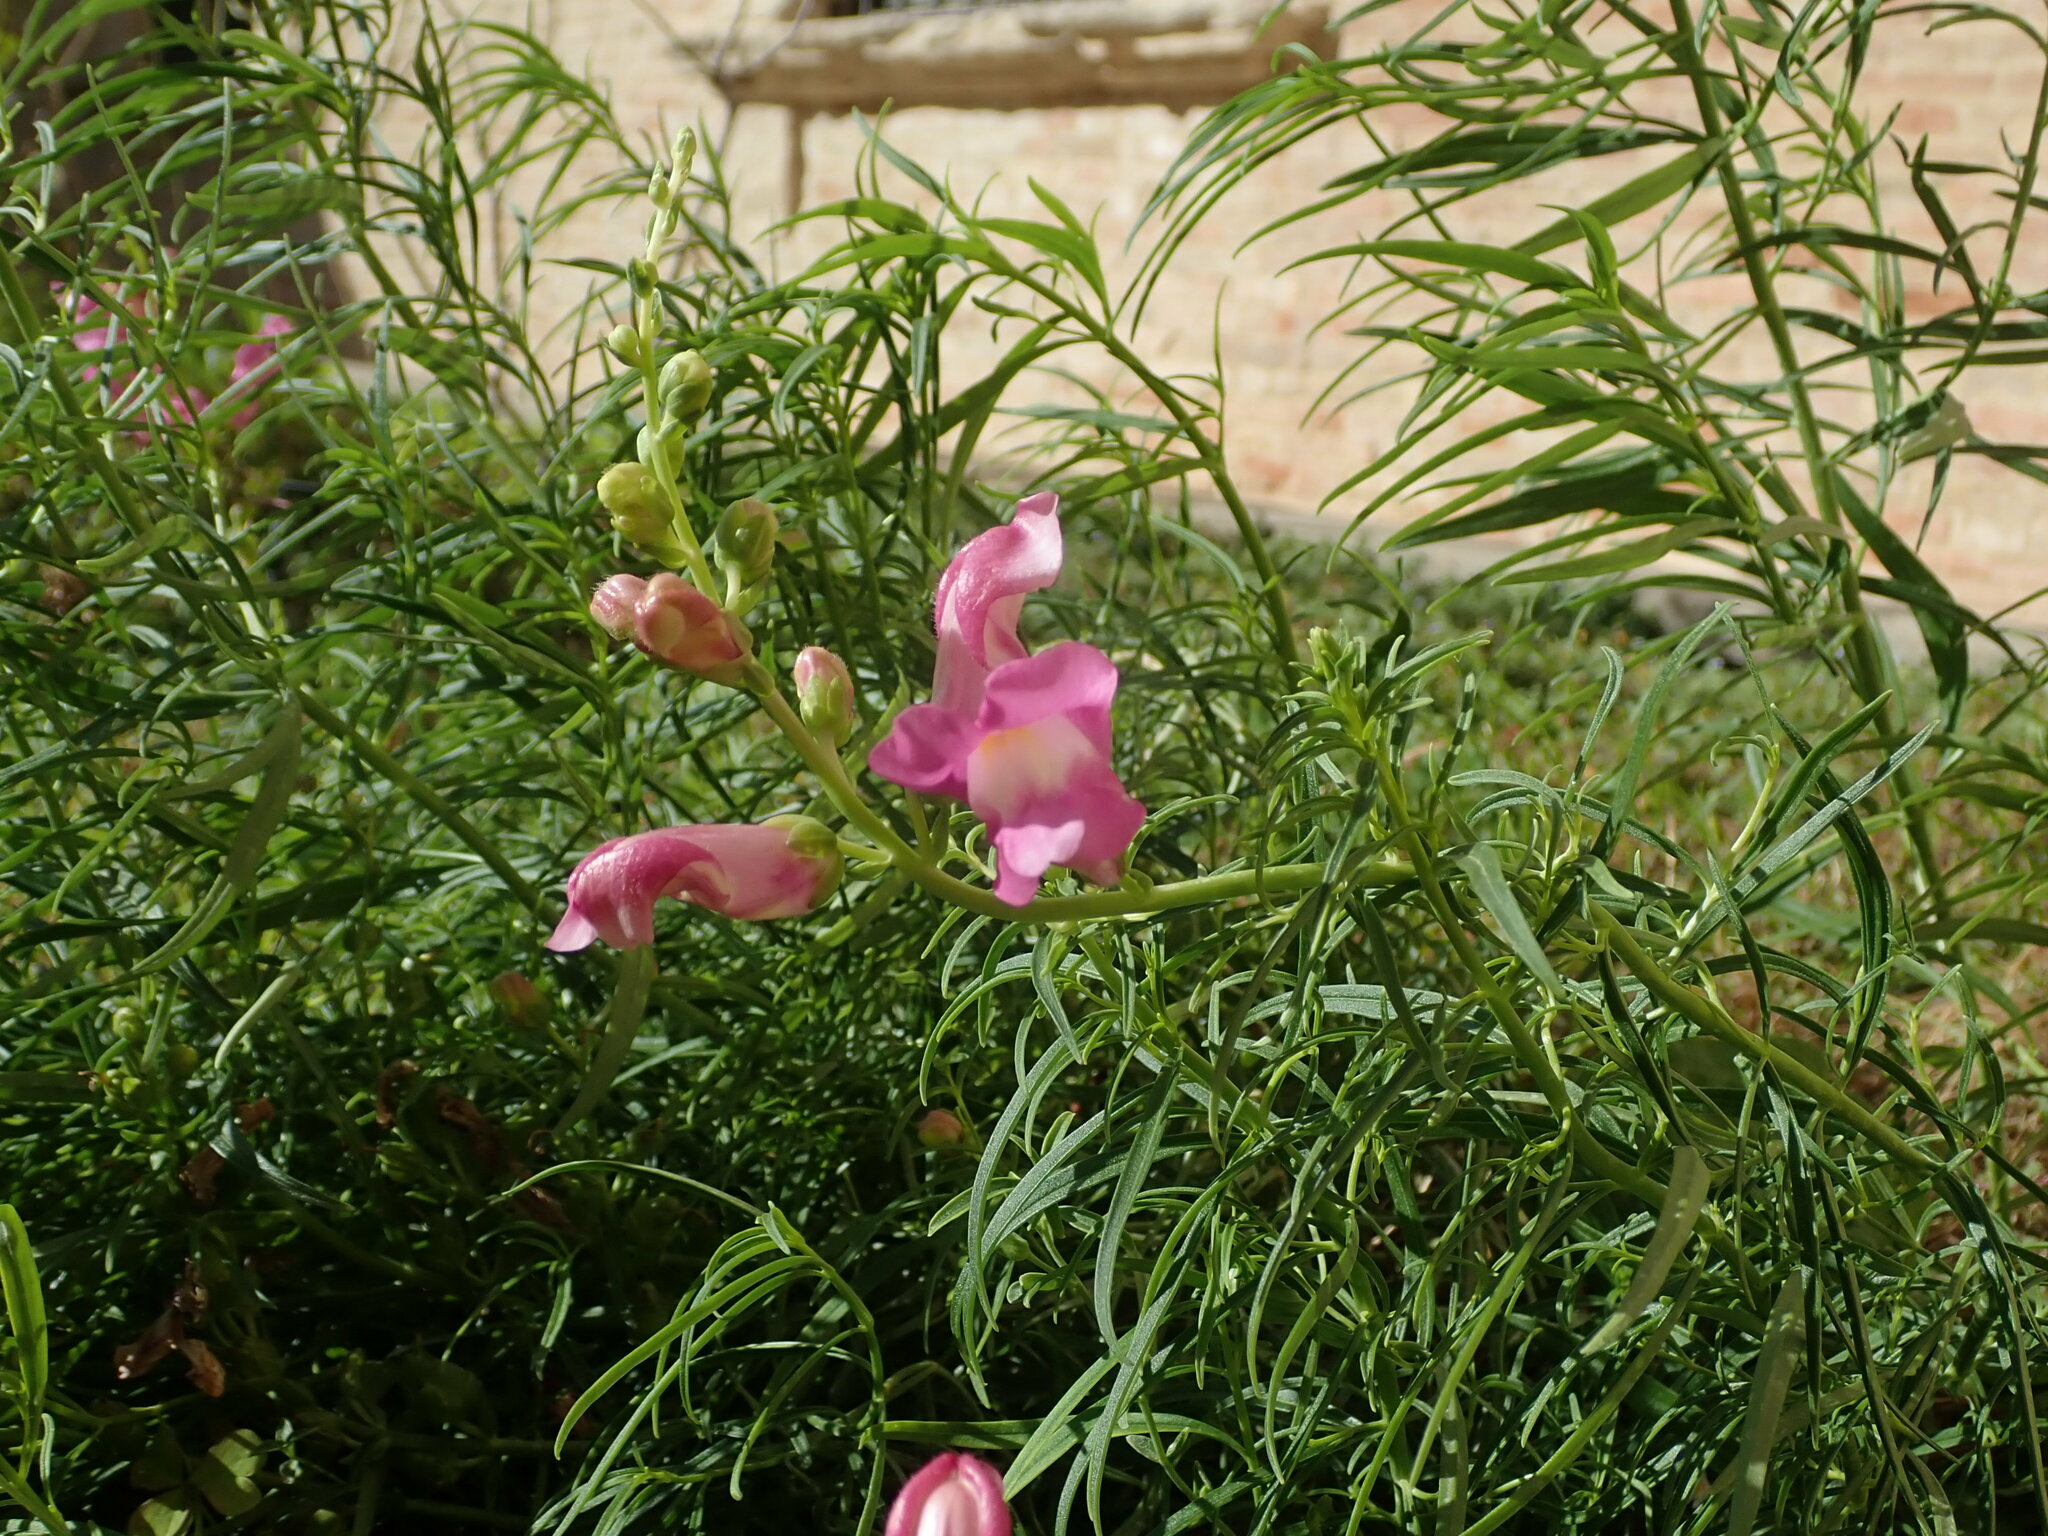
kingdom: Plantae
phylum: Tracheophyta
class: Magnoliopsida
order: Lamiales
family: Plantaginaceae
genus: Antirrhinum
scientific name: Antirrhinum tortuosum
